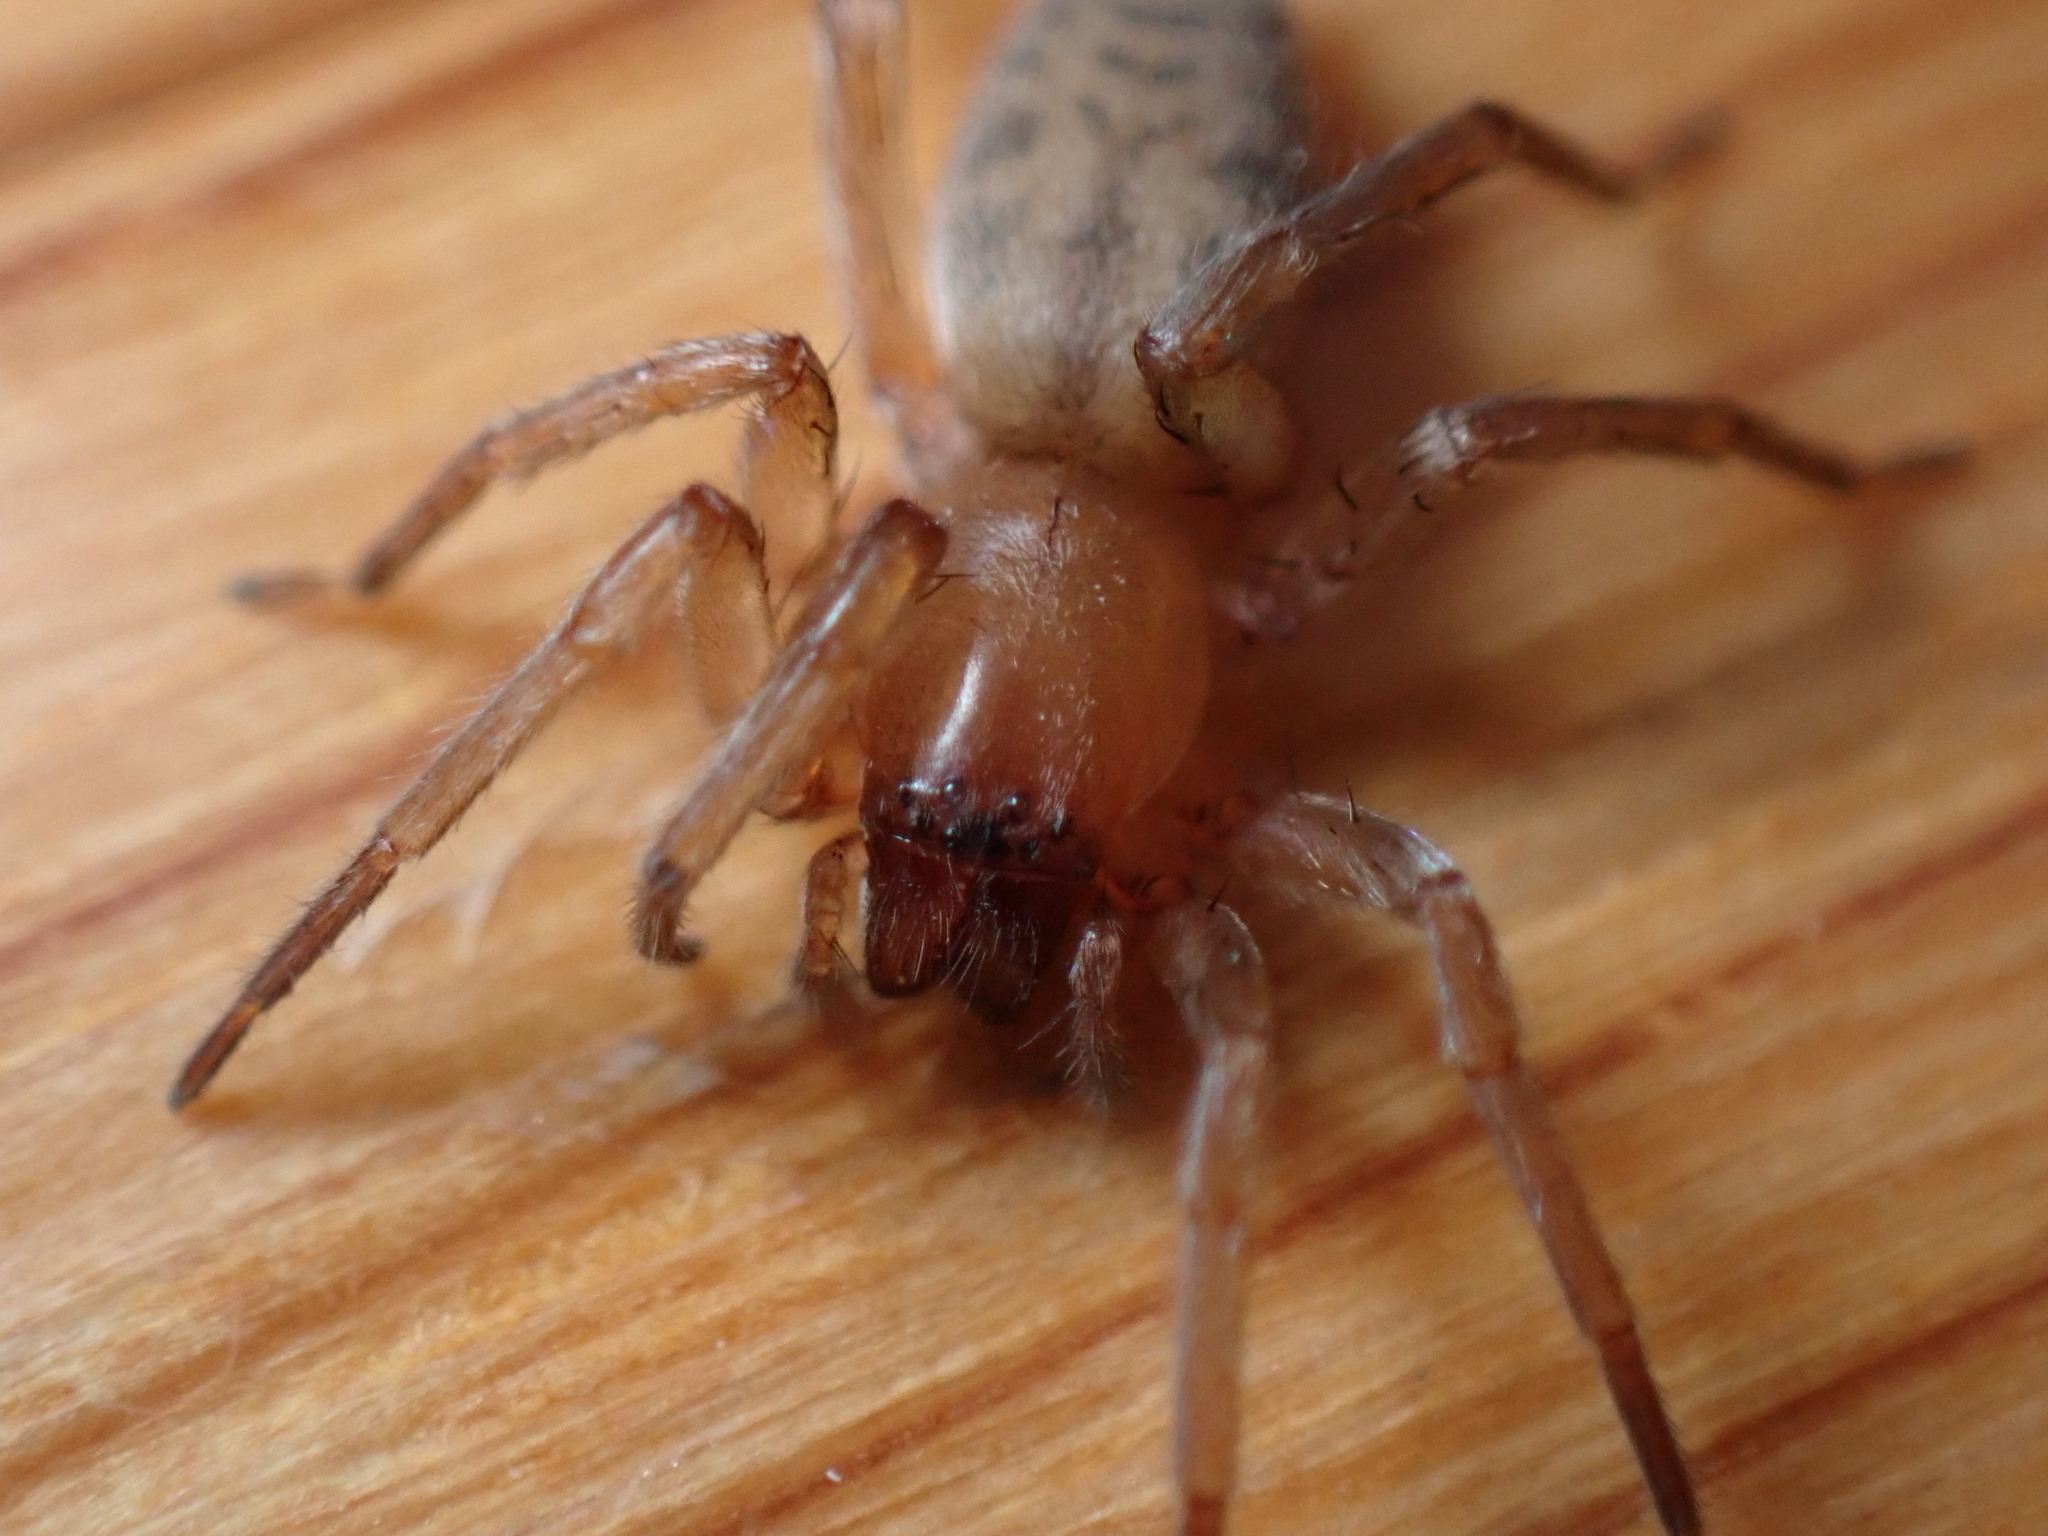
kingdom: Animalia
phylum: Arthropoda
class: Arachnida
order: Araneae
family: Clubionidae
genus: Elaver
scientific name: Elaver excepta
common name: White sac spider
